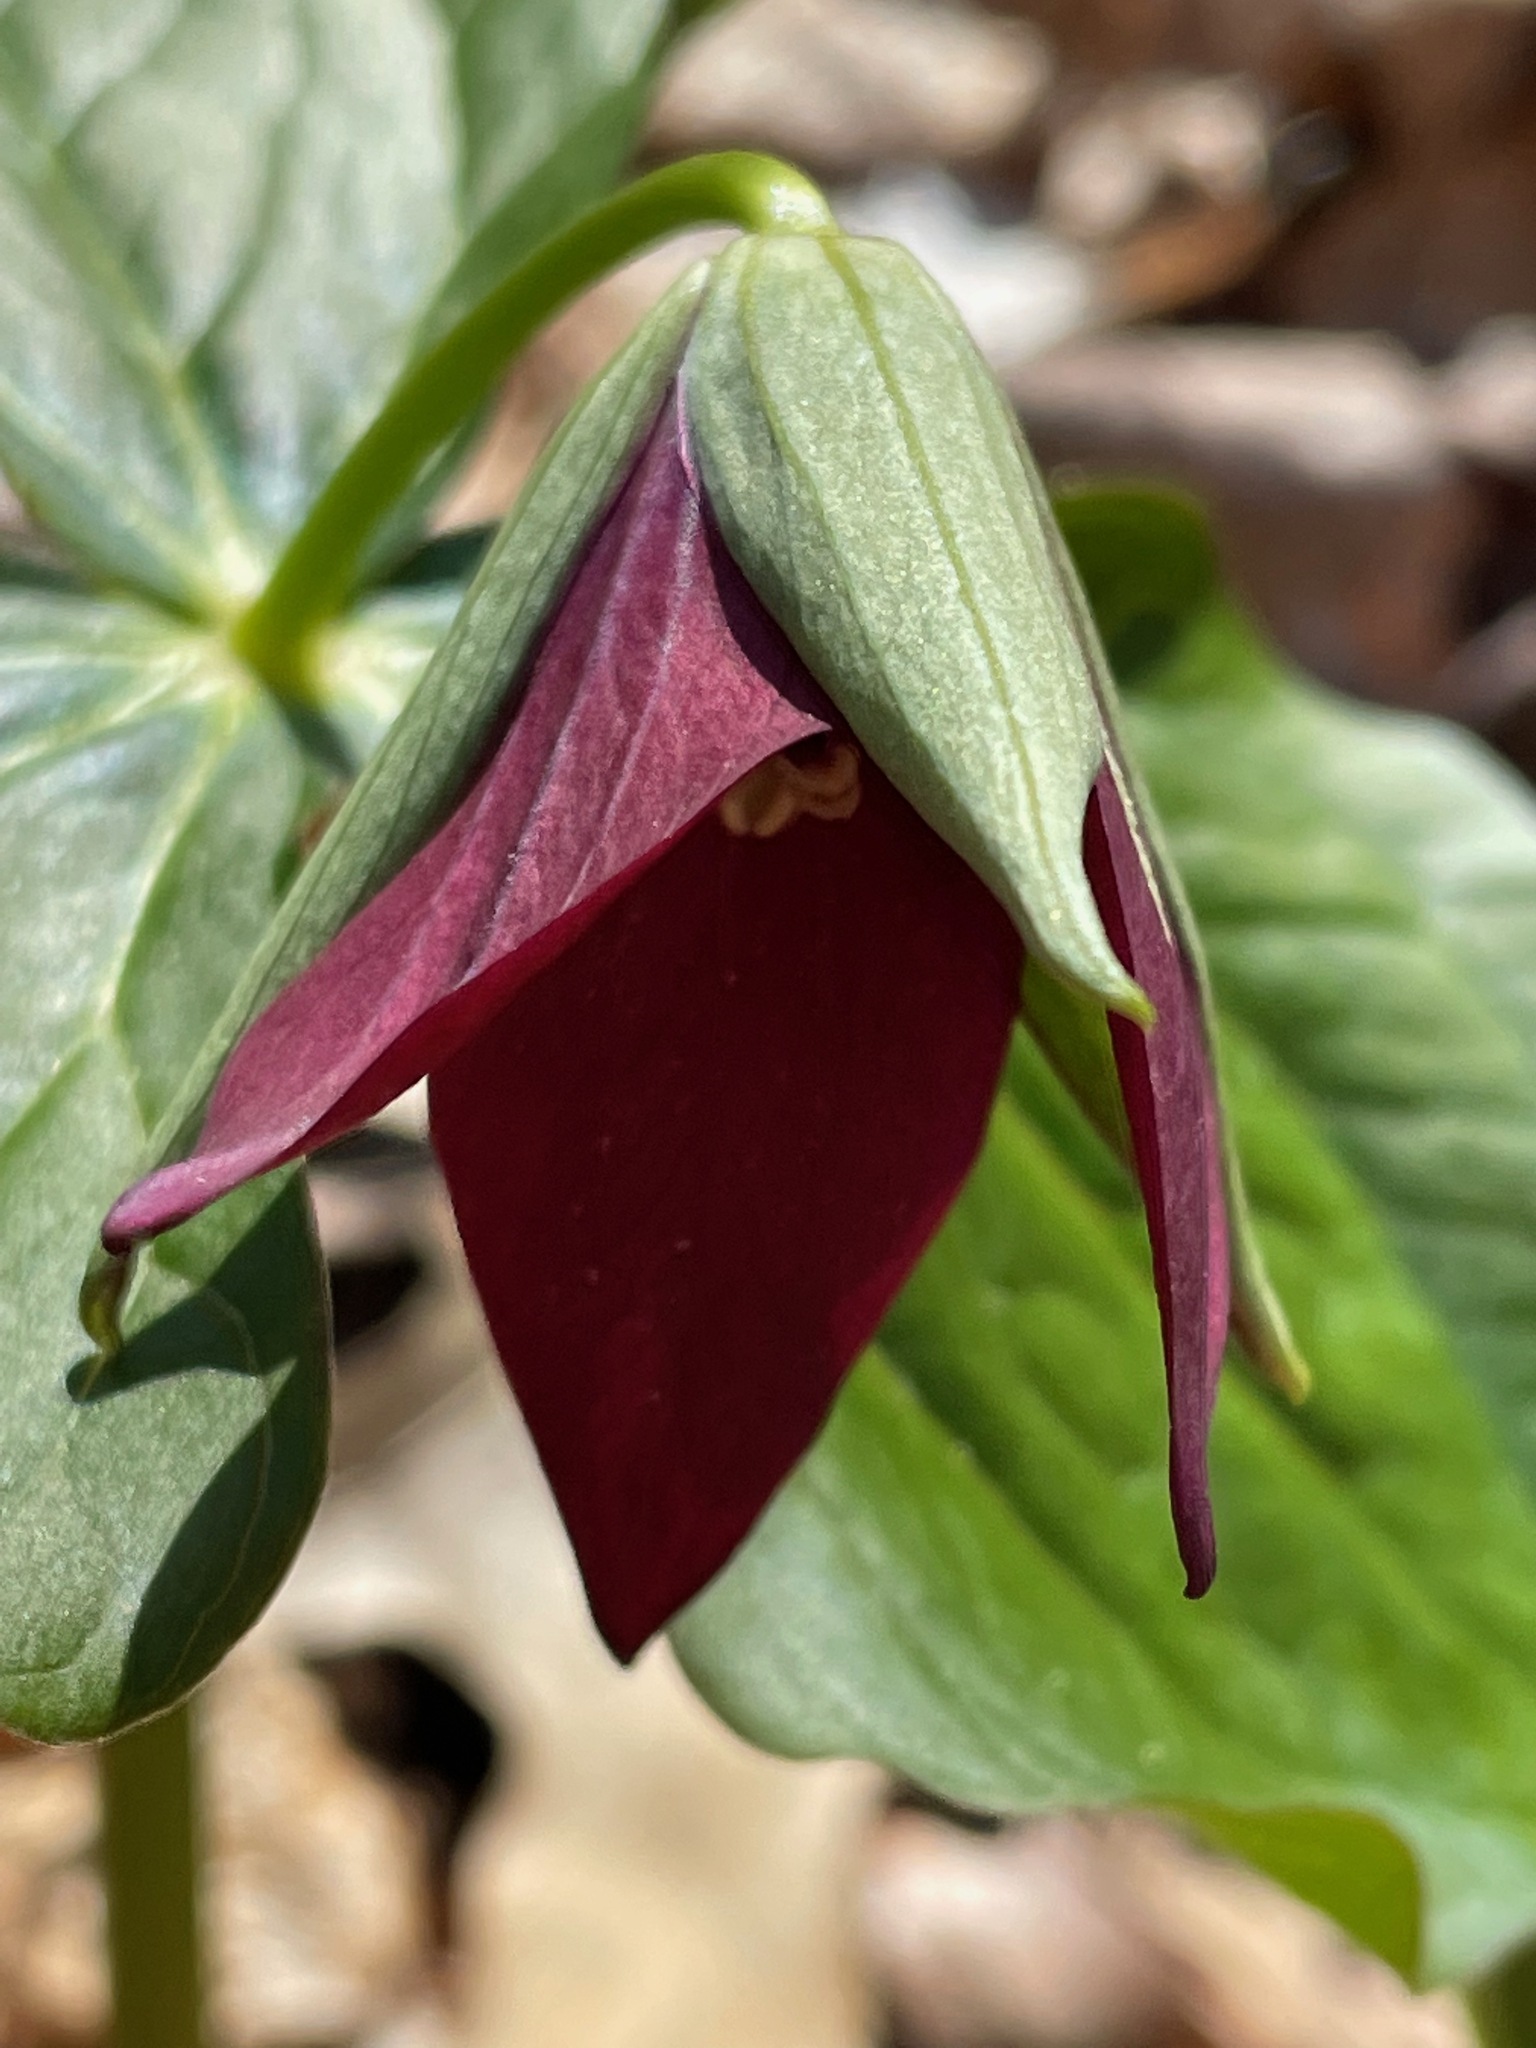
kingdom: Plantae
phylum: Tracheophyta
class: Liliopsida
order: Liliales
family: Melanthiaceae
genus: Trillium
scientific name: Trillium erectum
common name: Purple trillium
